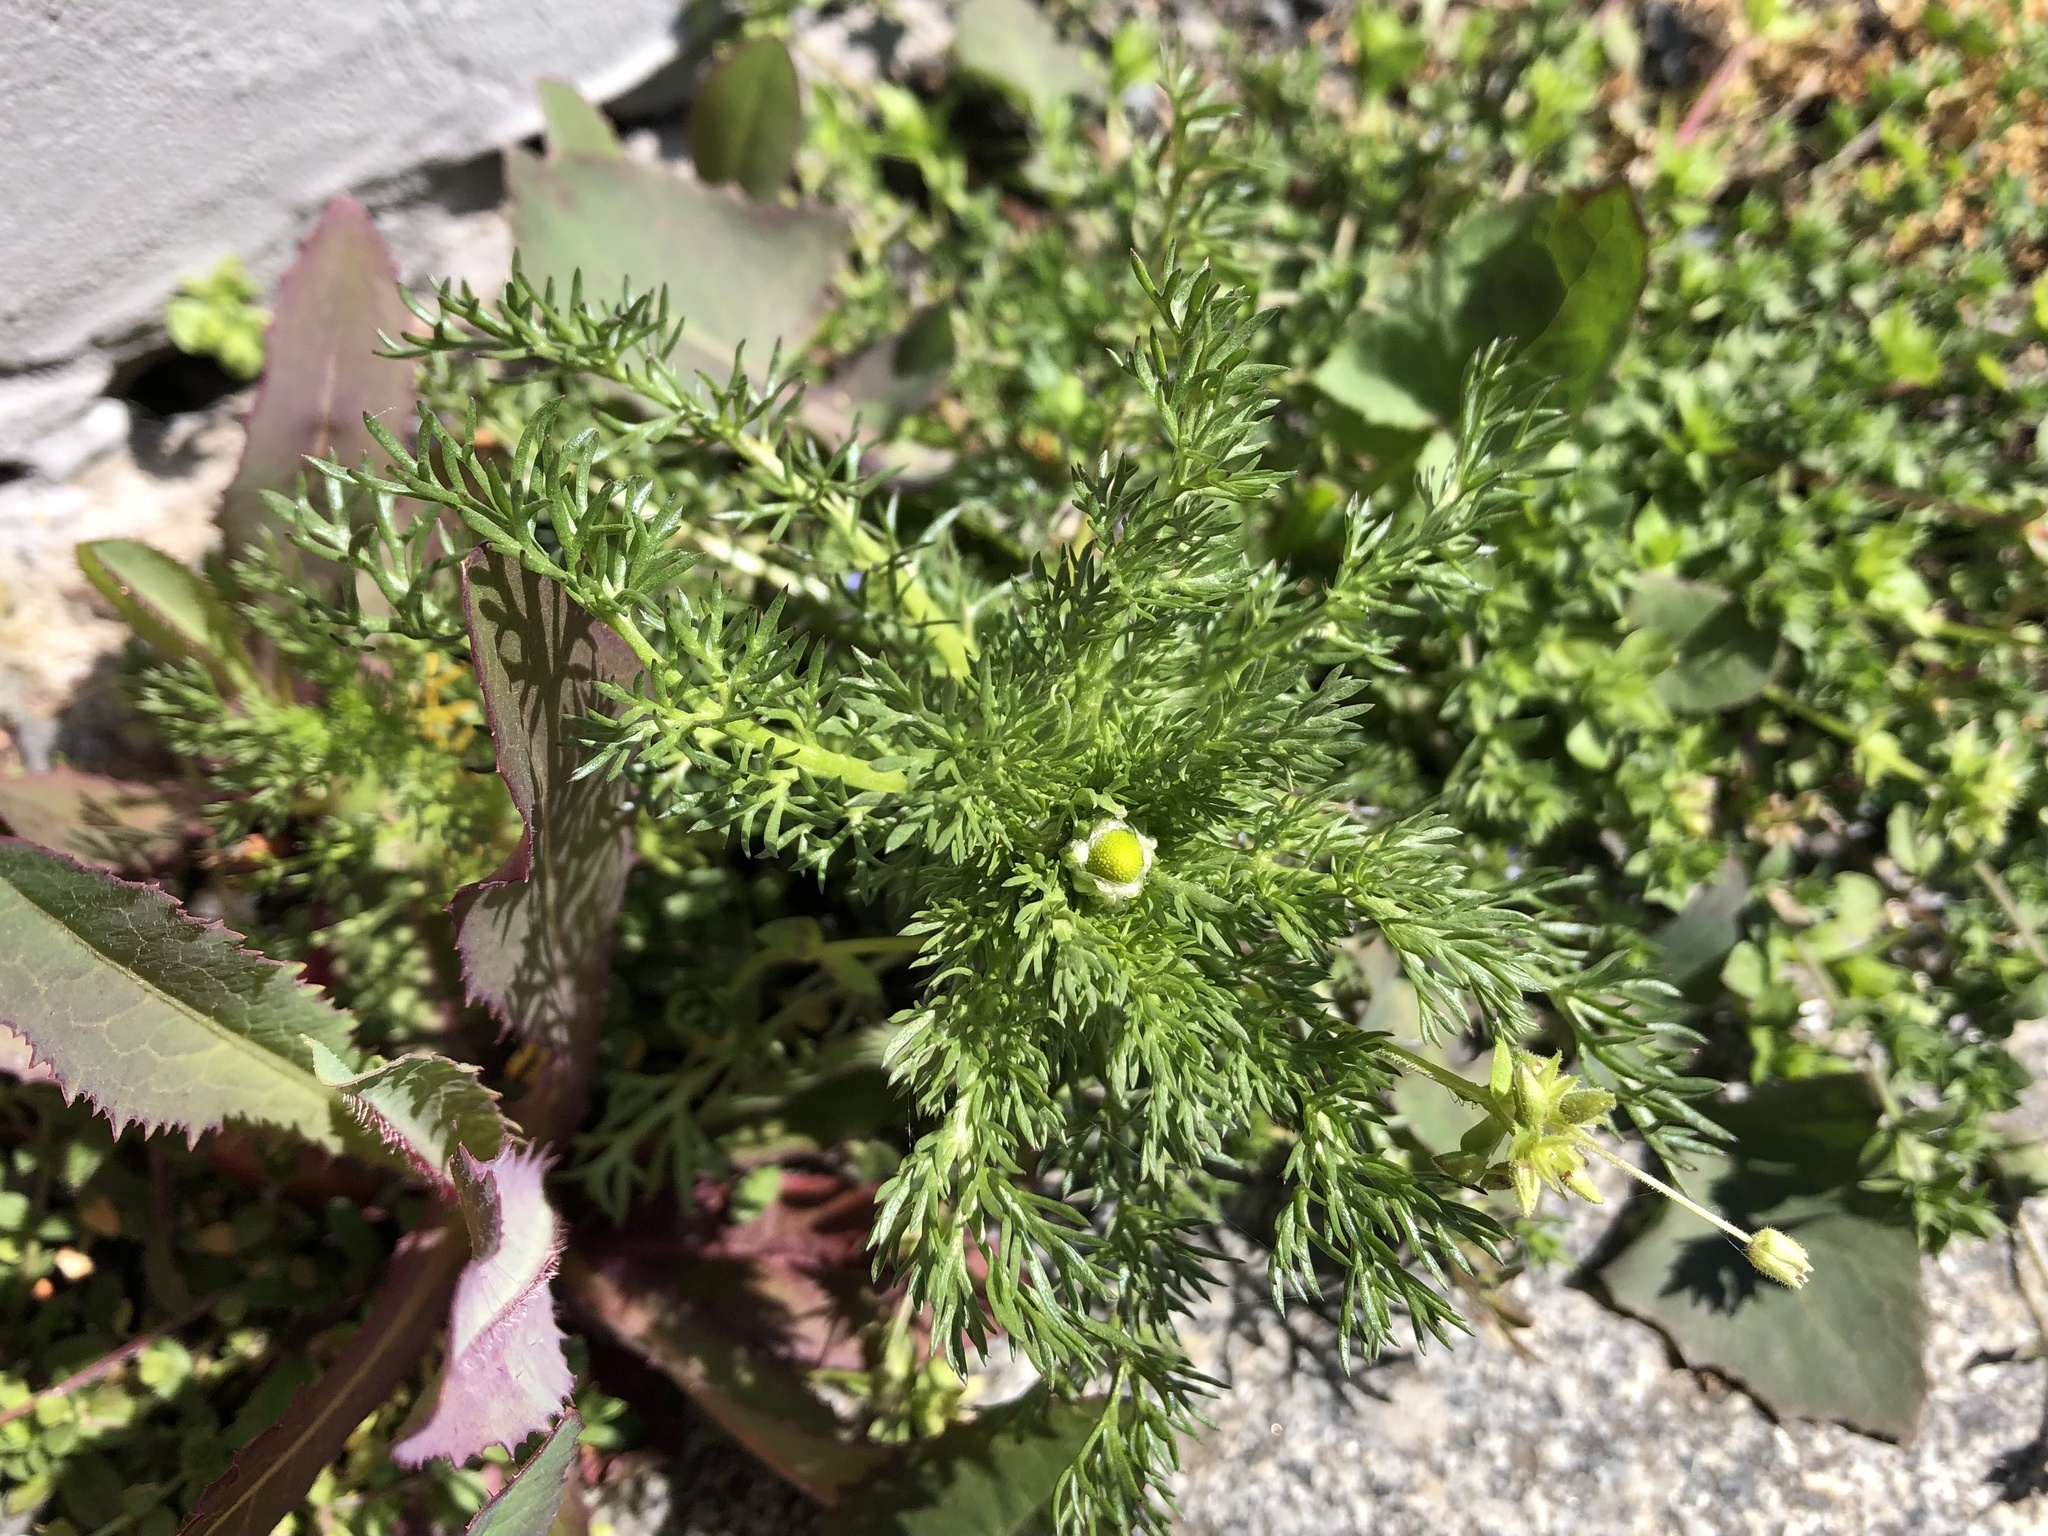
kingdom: Plantae
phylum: Tracheophyta
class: Magnoliopsida
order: Asterales
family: Asteraceae
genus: Tripleurospermum
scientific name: Tripleurospermum inodorum
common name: Scentless mayweed
